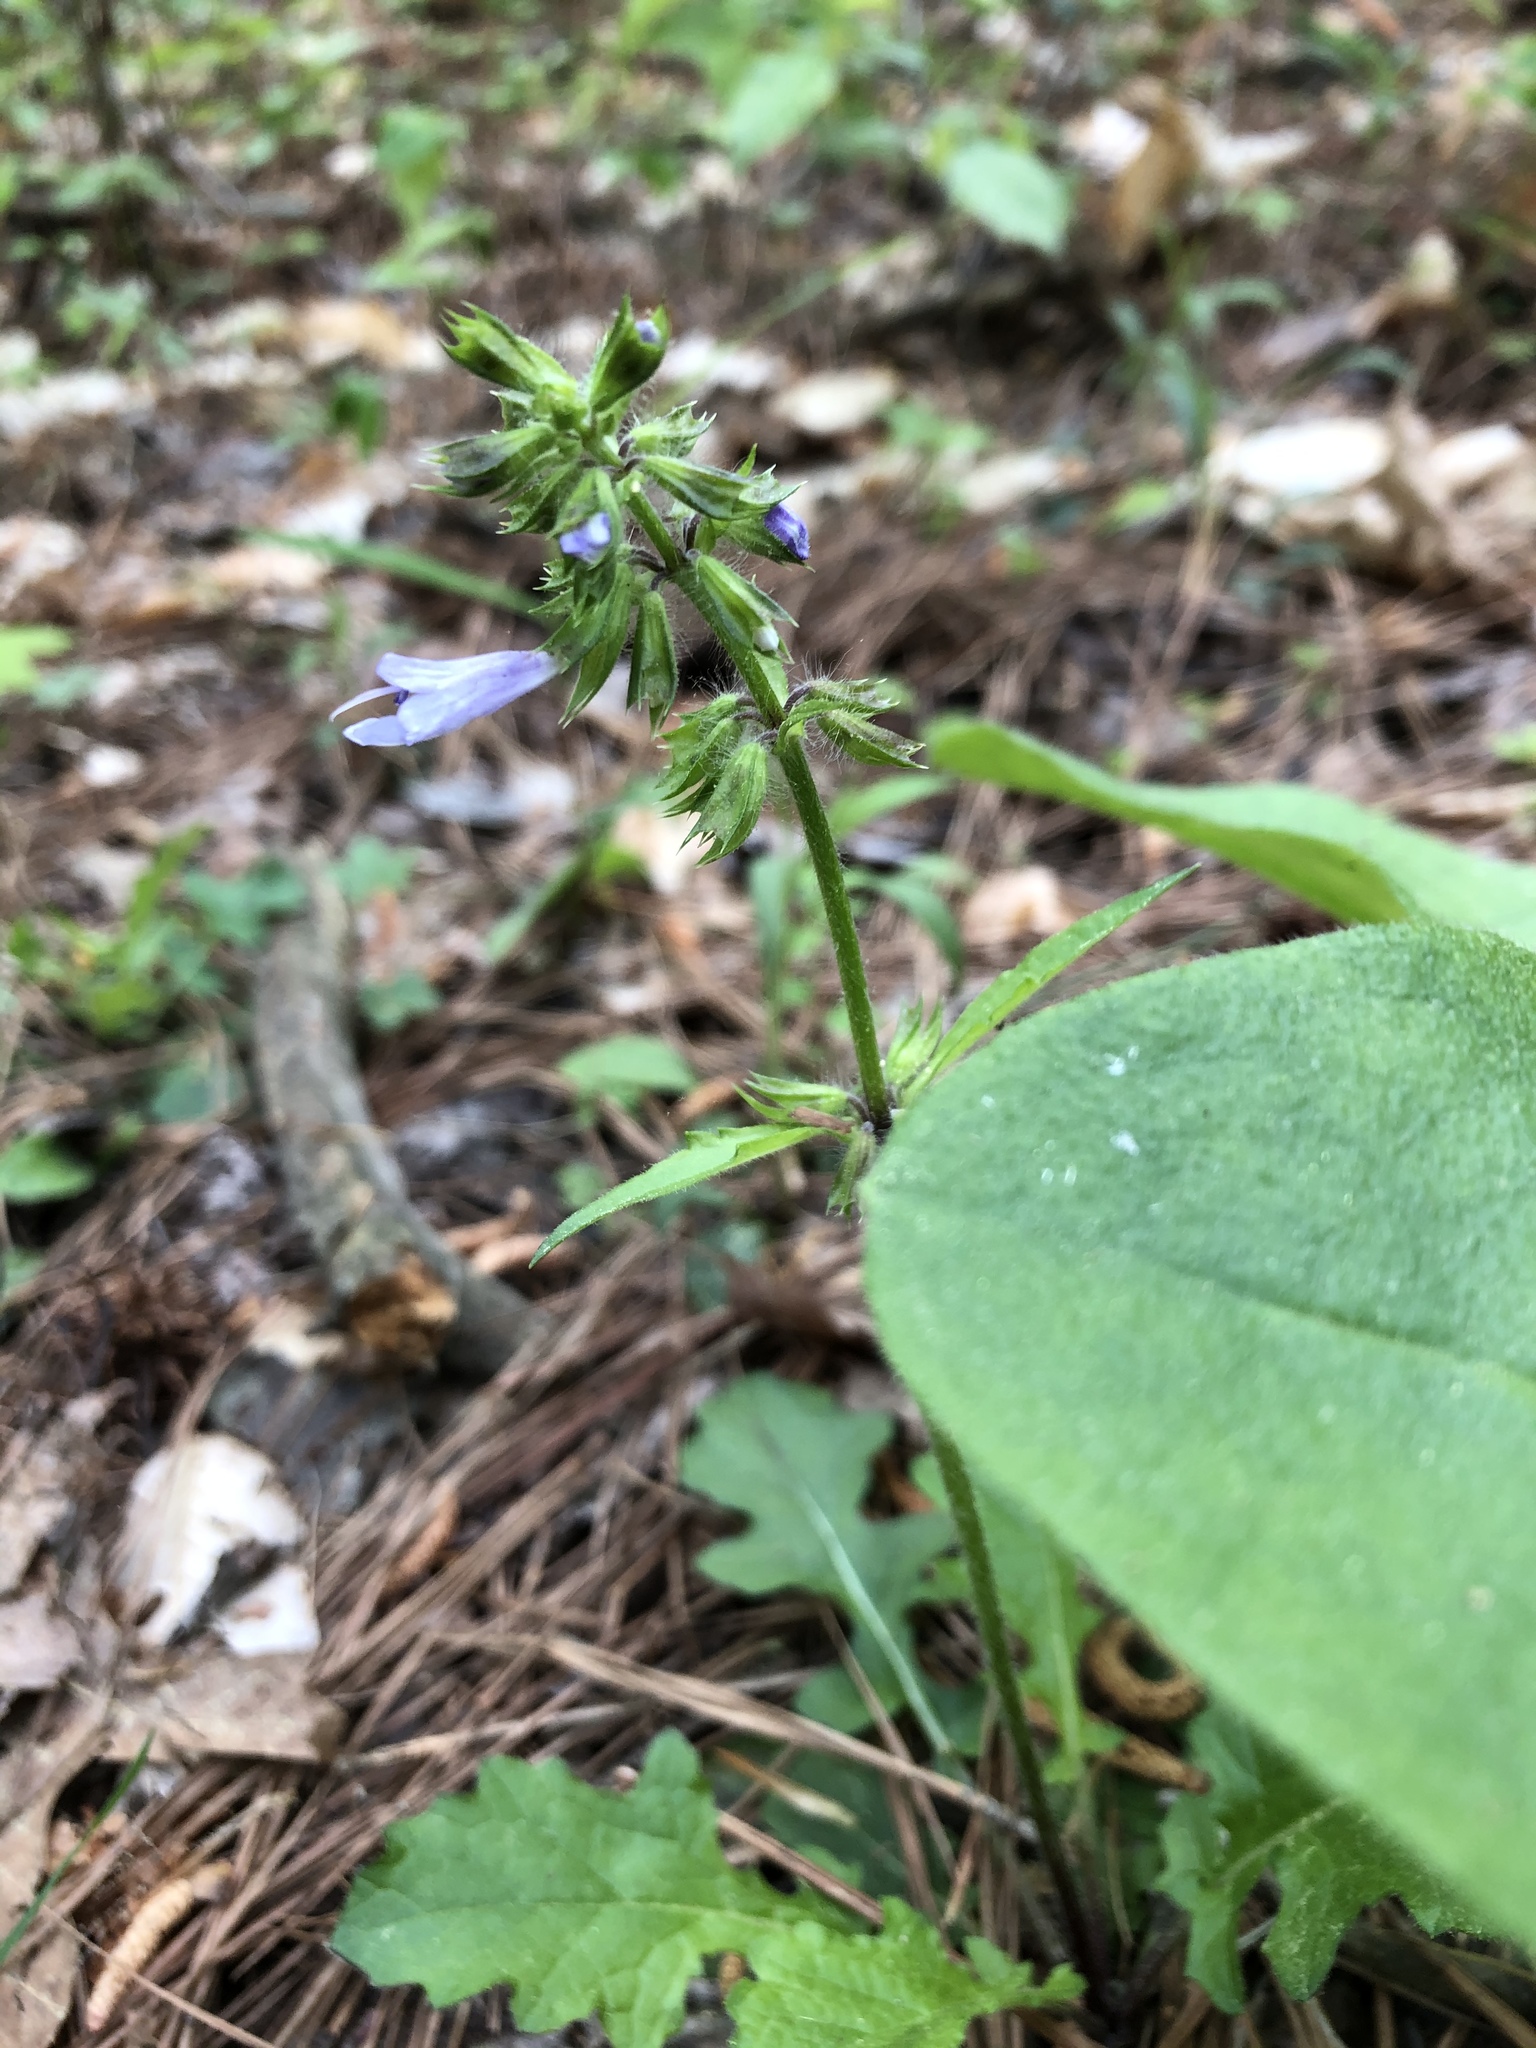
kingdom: Plantae
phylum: Tracheophyta
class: Magnoliopsida
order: Lamiales
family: Lamiaceae
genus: Salvia
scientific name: Salvia lyrata
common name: Cancerweed
